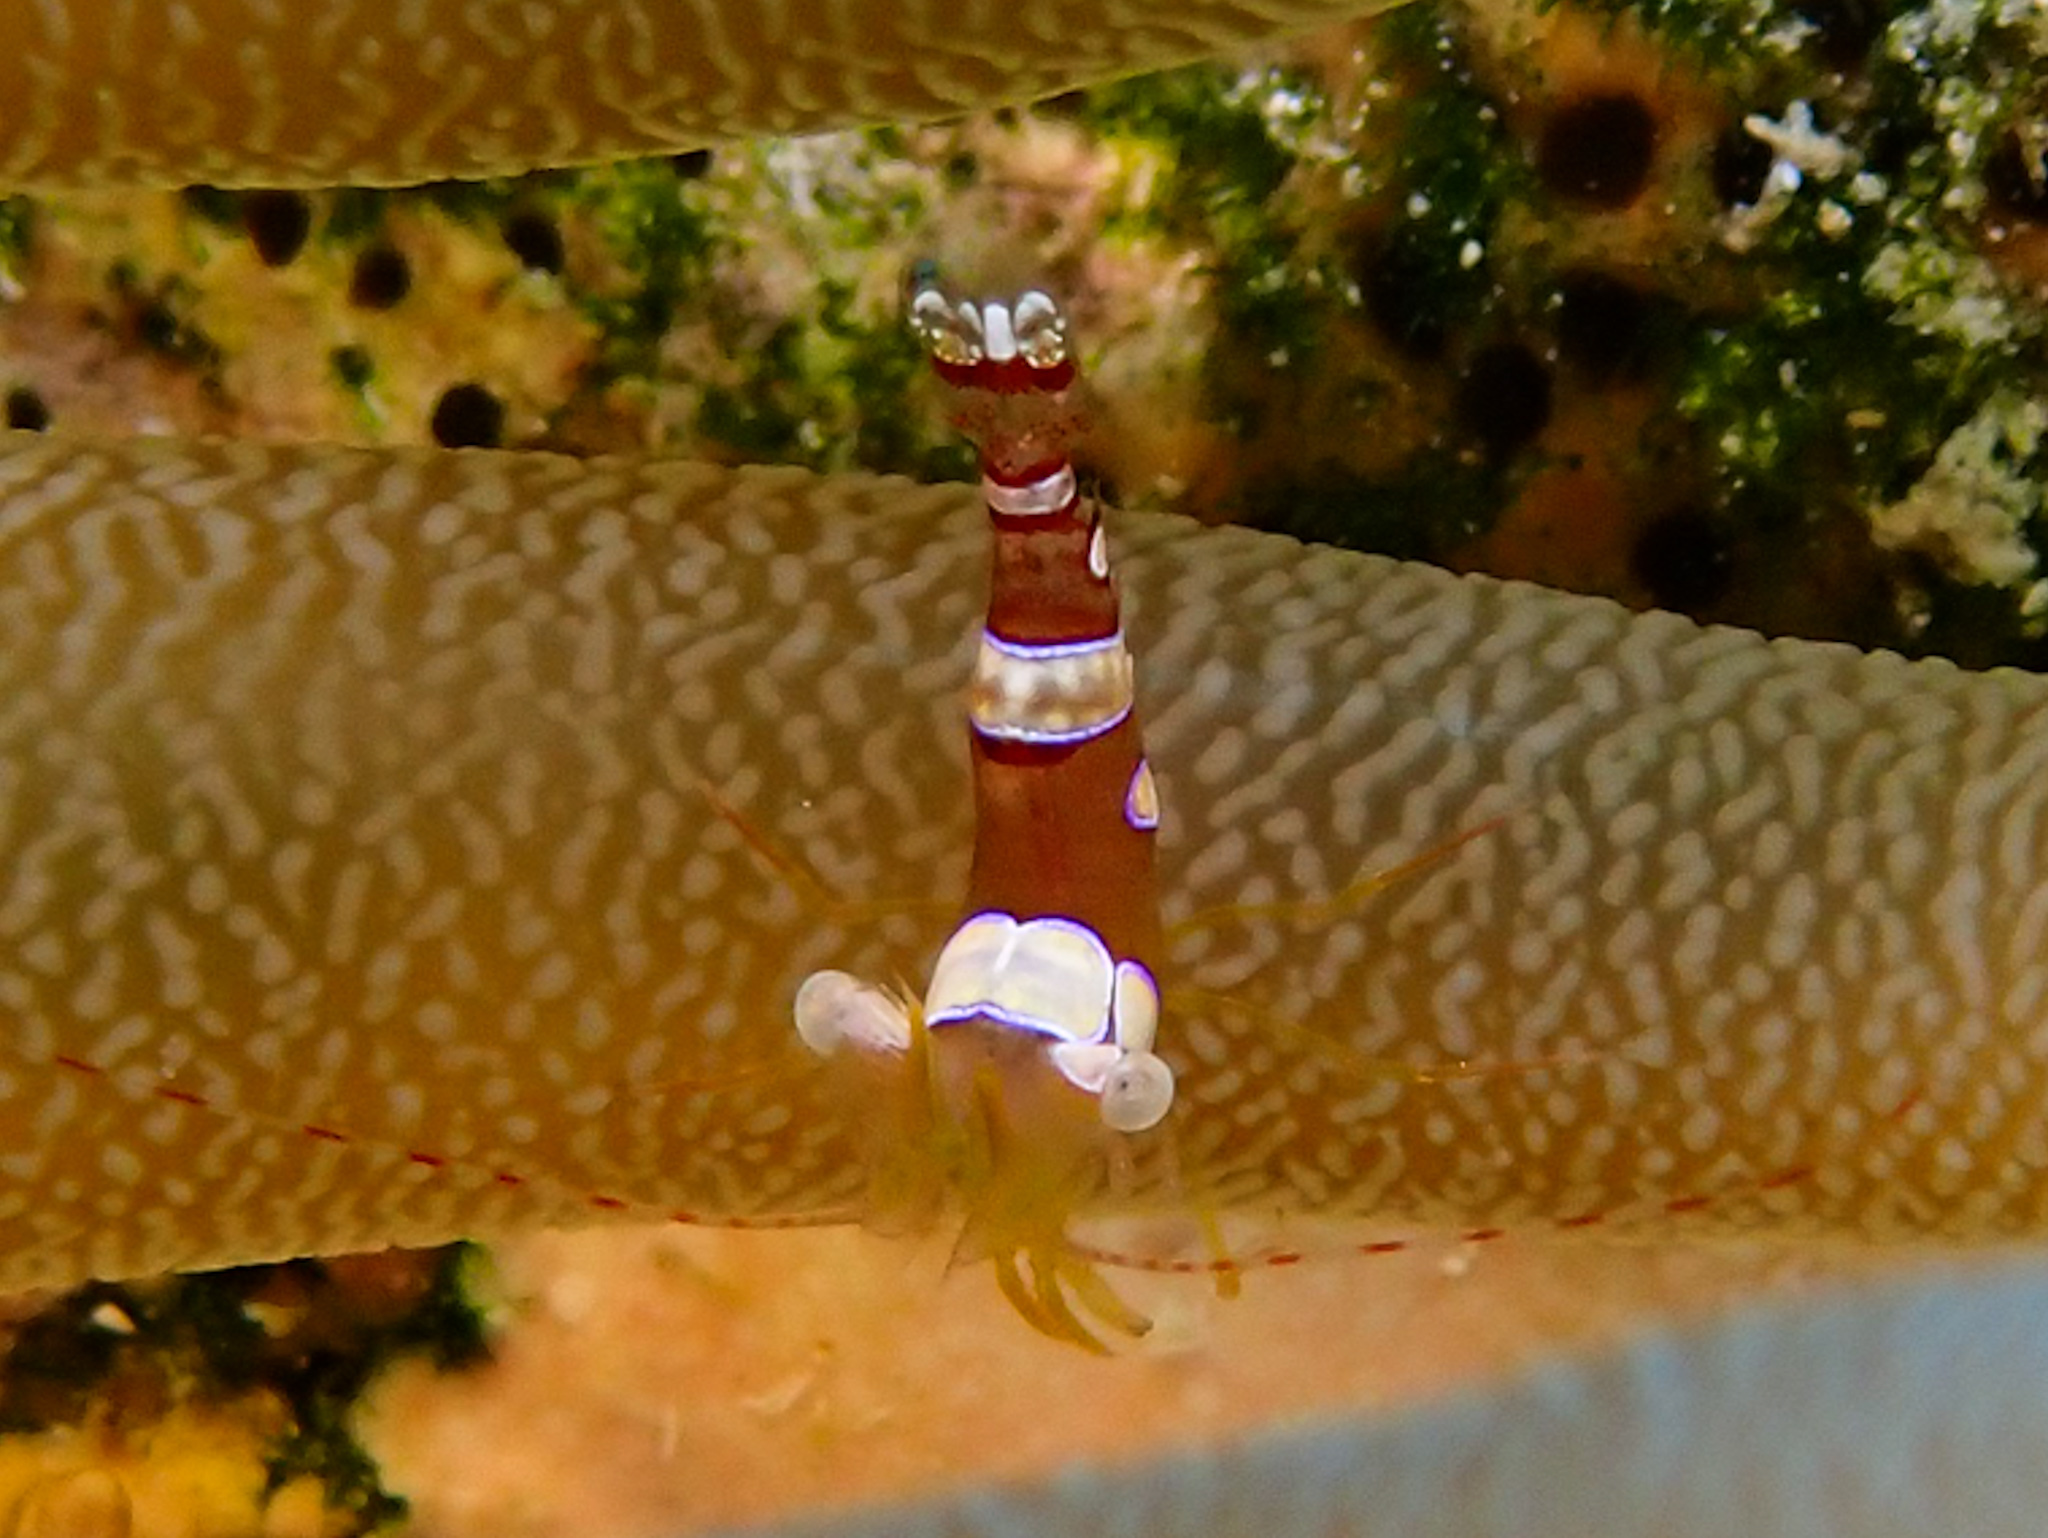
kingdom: Animalia
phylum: Arthropoda
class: Malacostraca
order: Decapoda
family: Thoridae
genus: Thor
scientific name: Thor dicaprio
